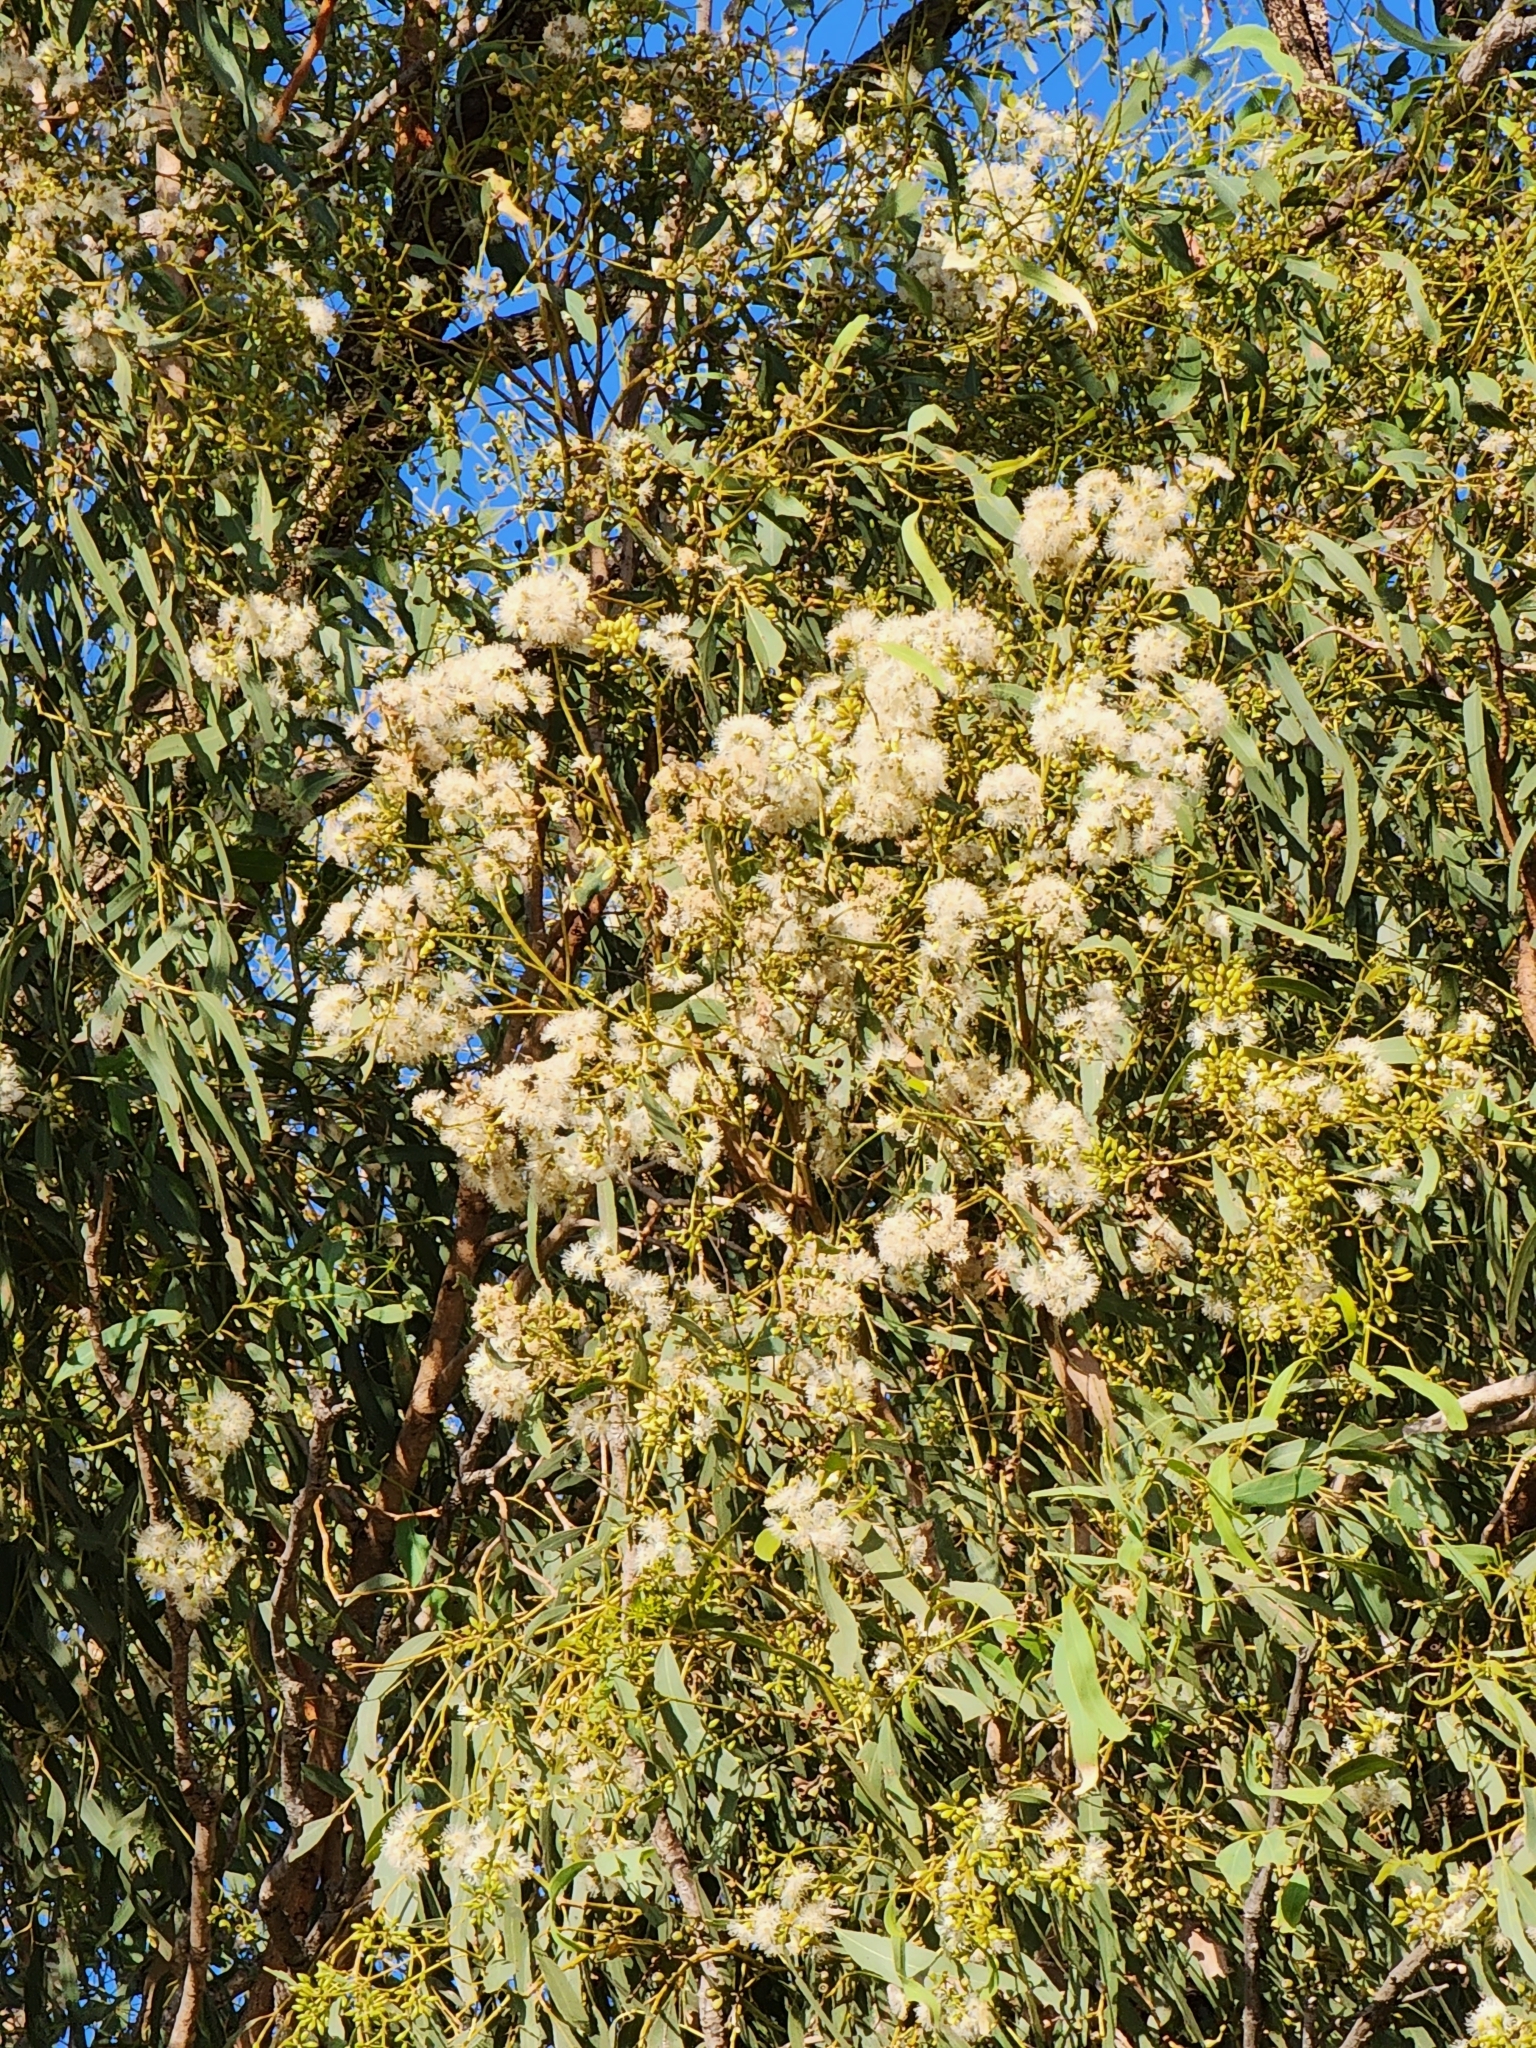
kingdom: Plantae
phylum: Tracheophyta
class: Magnoliopsida
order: Myrtales
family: Myrtaceae
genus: Eucalyptus
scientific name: Eucalyptus crebra
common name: Narrowleaf red ironbark
